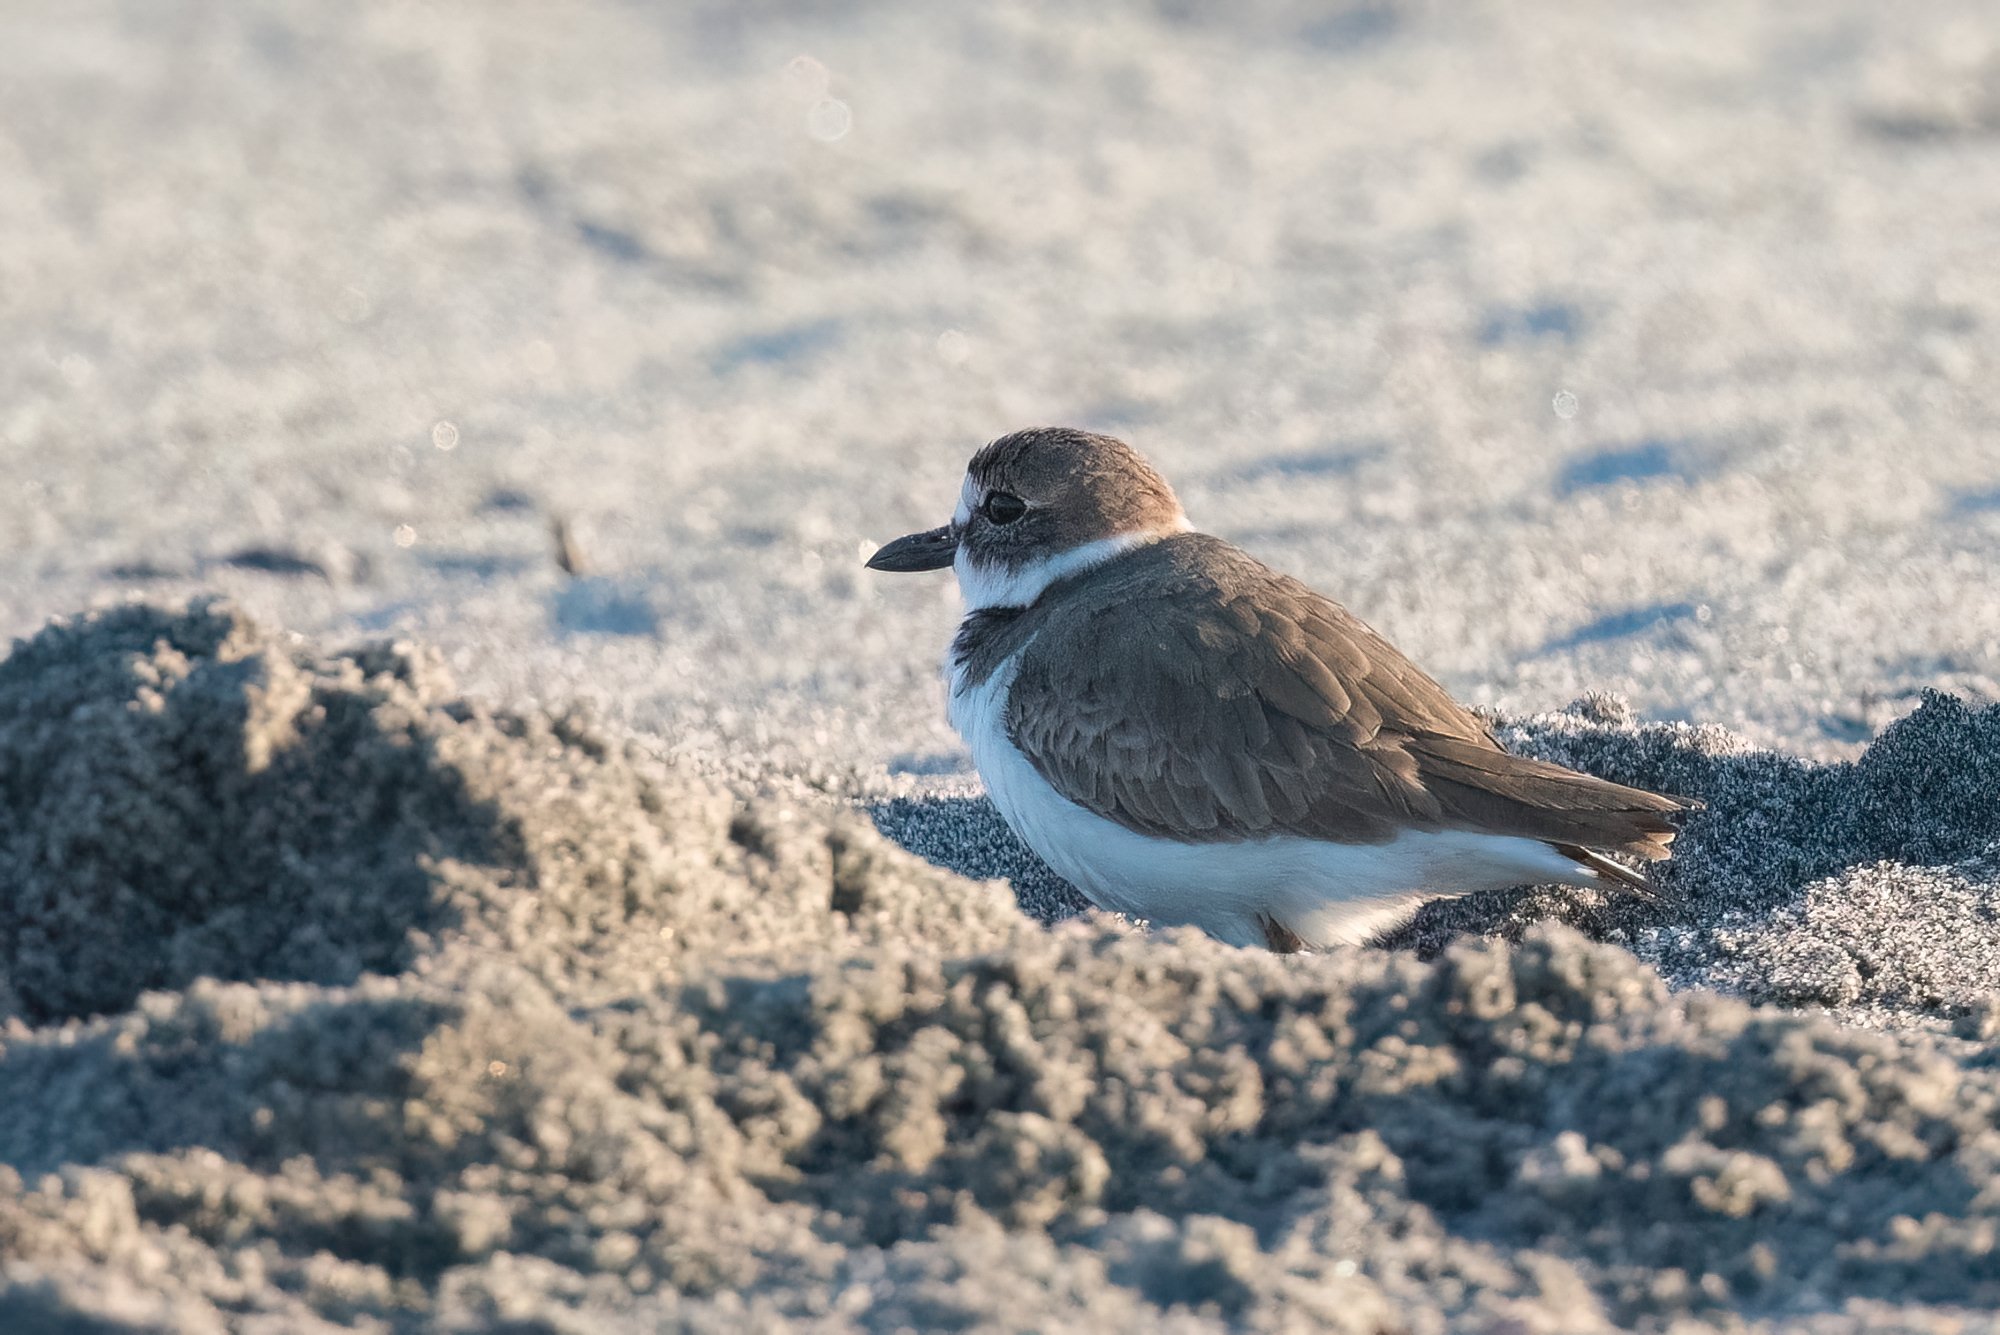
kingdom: Animalia
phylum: Chordata
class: Aves
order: Charadriiformes
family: Charadriidae
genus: Anarhynchus
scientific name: Anarhynchus
